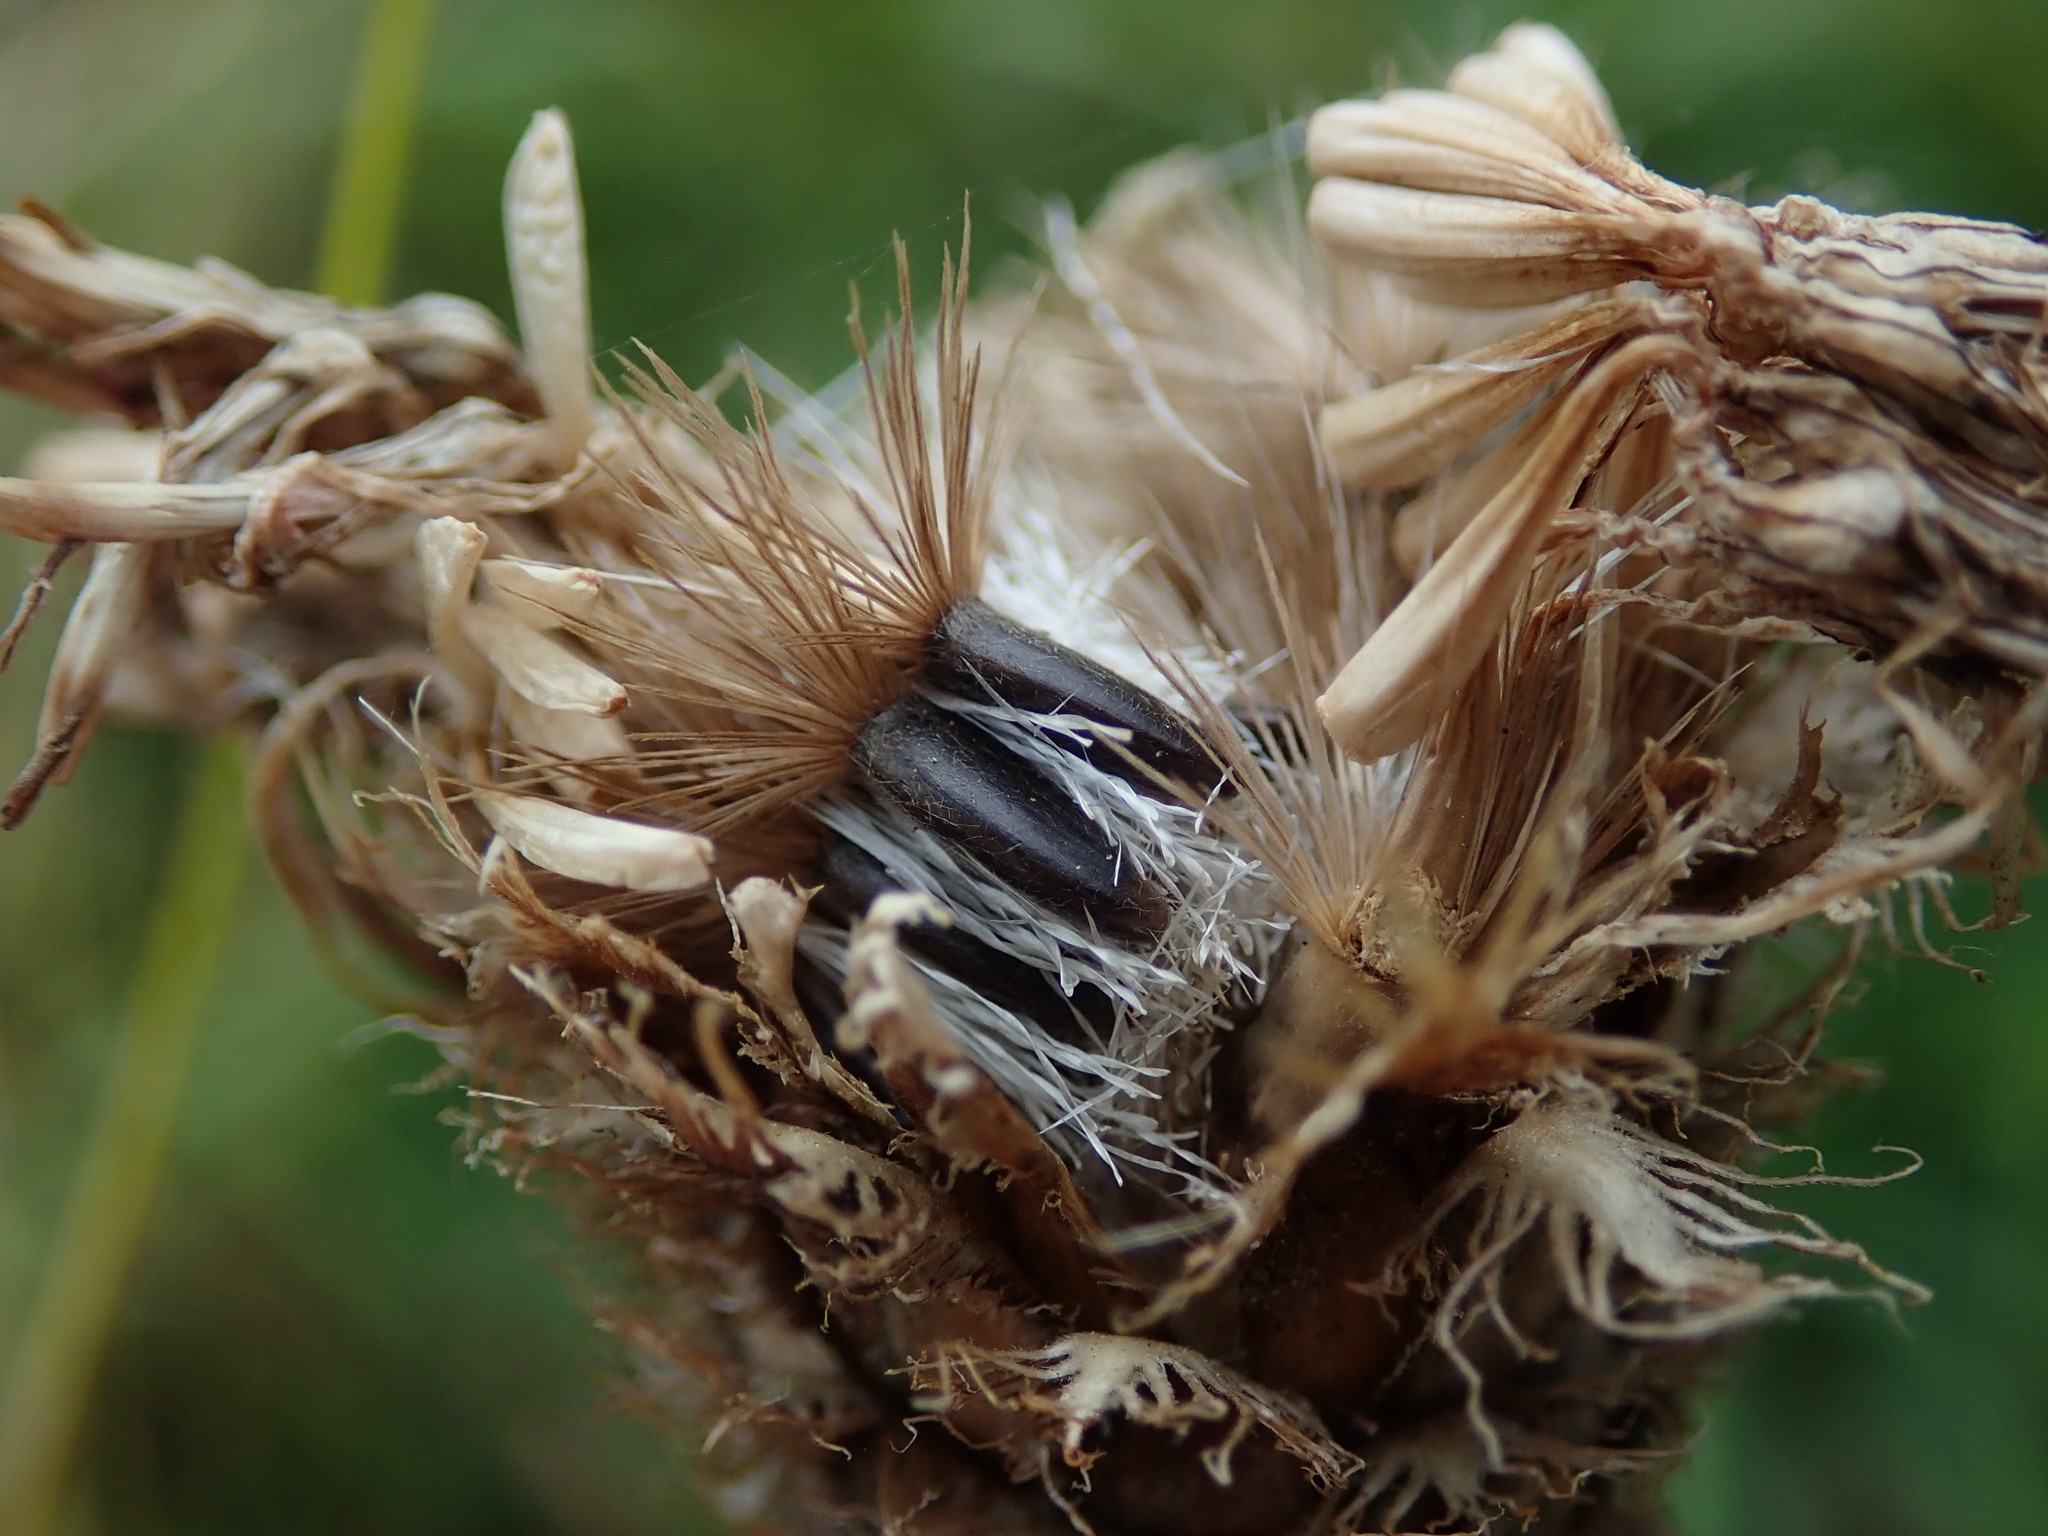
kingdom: Plantae
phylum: Tracheophyta
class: Magnoliopsida
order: Asterales
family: Asteraceae
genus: Centaurea
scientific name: Centaurea scabiosa
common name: Greater knapweed
